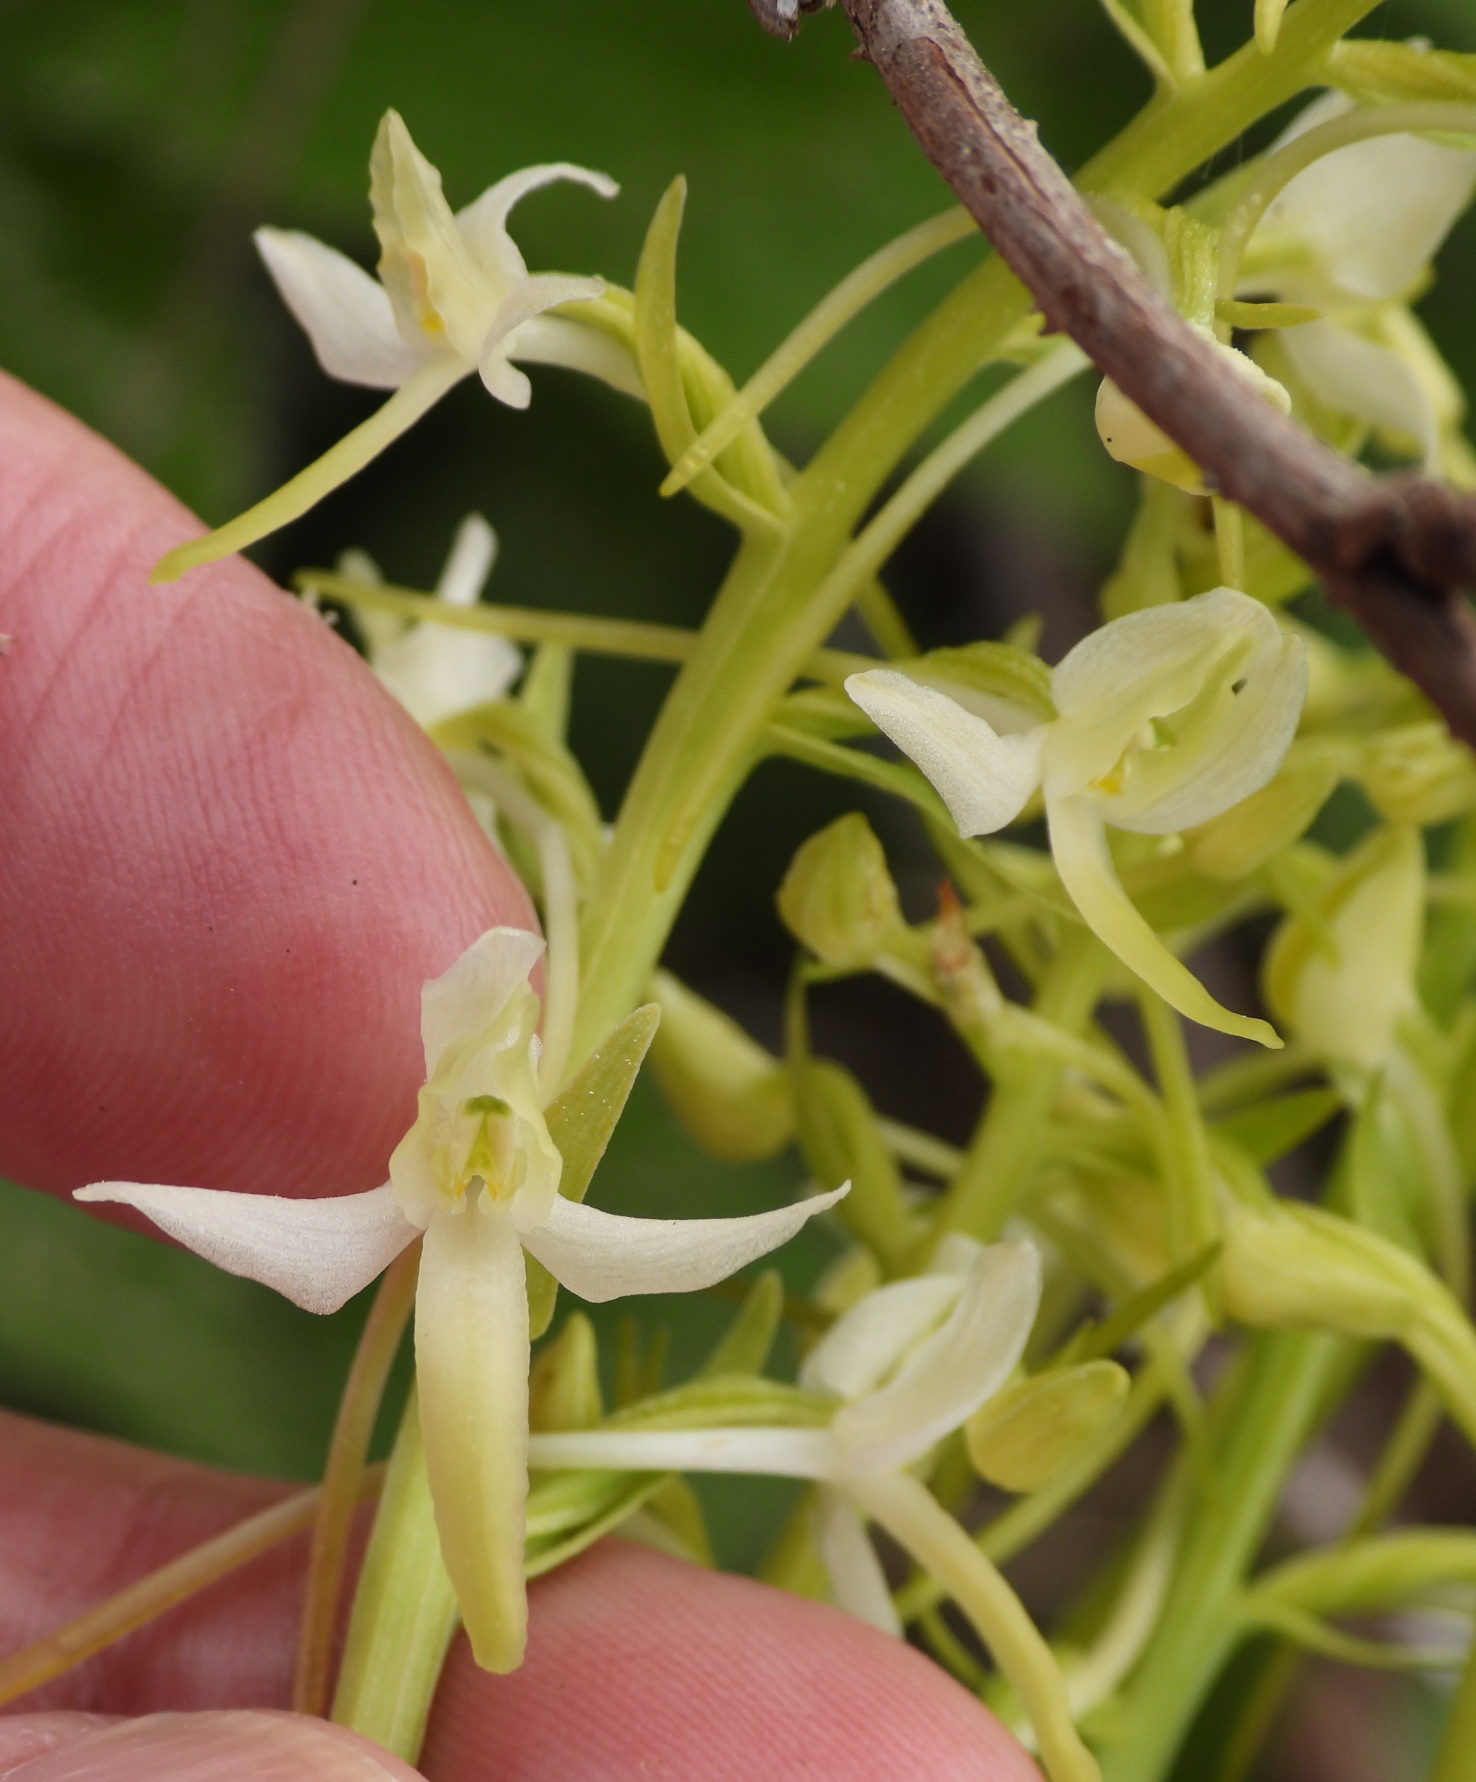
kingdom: Plantae
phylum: Tracheophyta
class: Liliopsida
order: Asparagales
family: Orchidaceae
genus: Platanthera
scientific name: Platanthera bifolia
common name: Lesser butterfly-orchid
